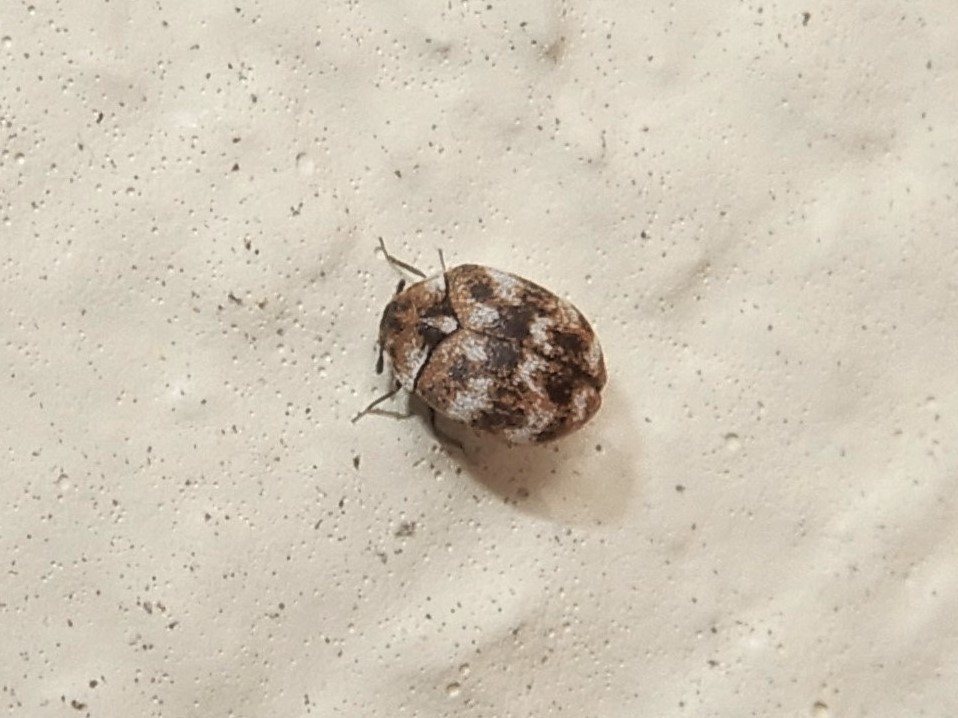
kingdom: Animalia
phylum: Arthropoda
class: Insecta
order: Coleoptera
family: Dermestidae
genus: Anthrenus
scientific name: Anthrenus verbasci
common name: Varied carpet beetle
